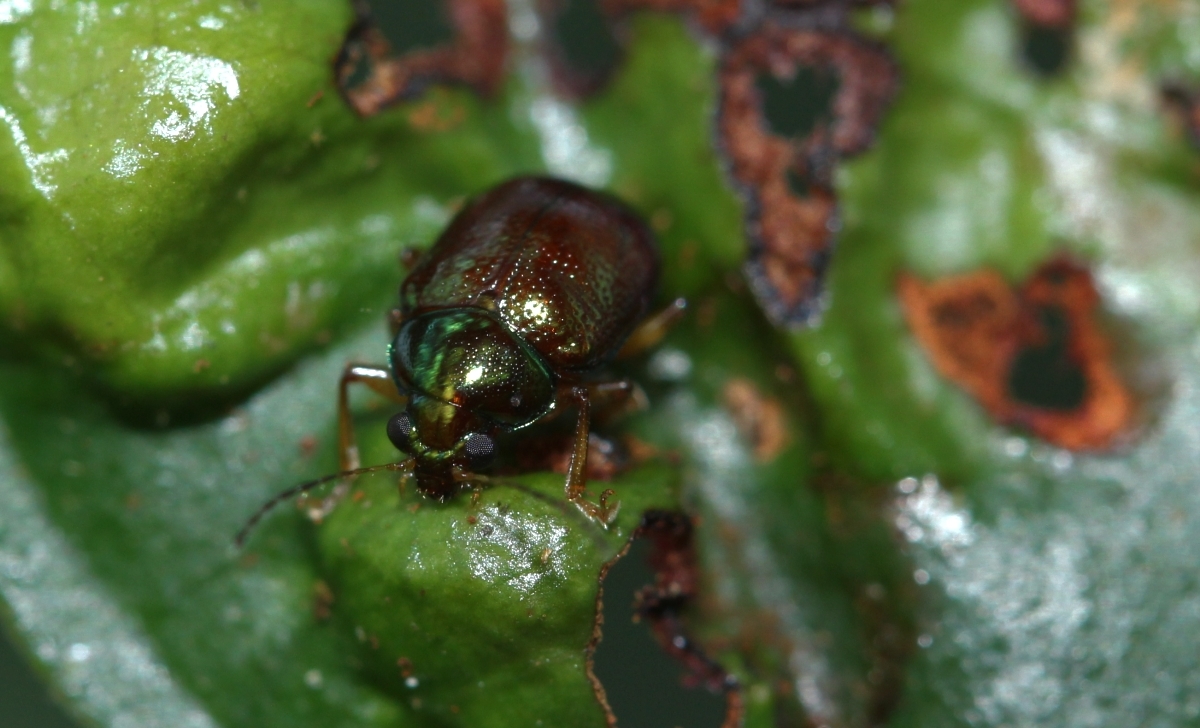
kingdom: Animalia
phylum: Arthropoda
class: Insecta
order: Coleoptera
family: Chrysomelidae
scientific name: Chrysomelidae
